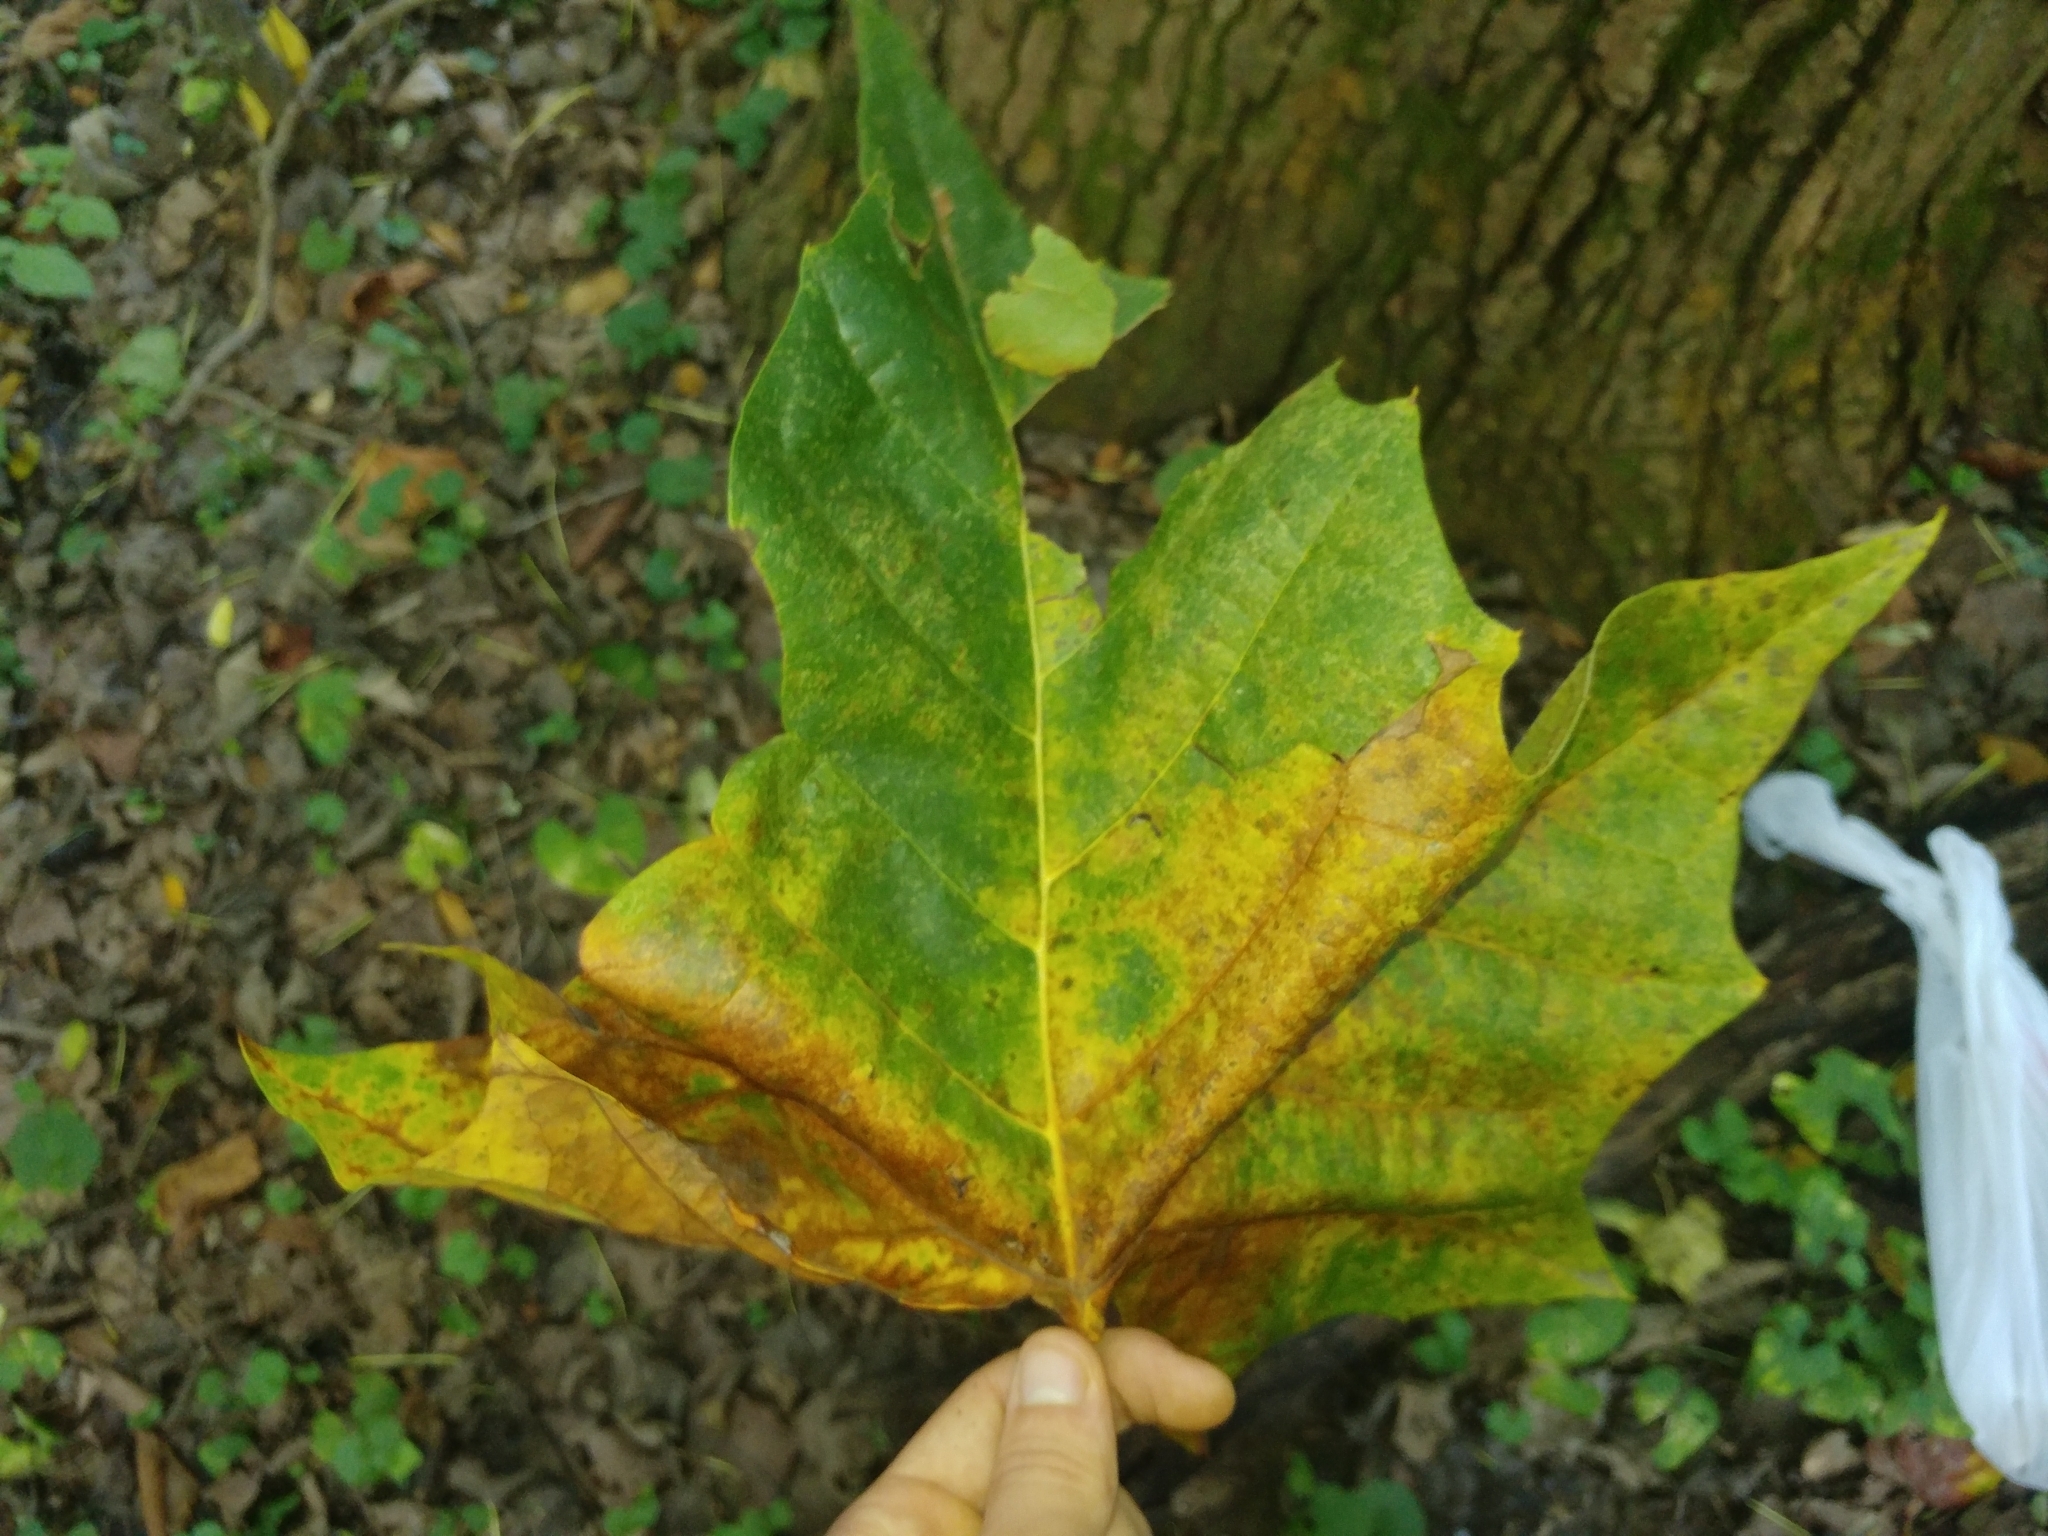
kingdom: Plantae
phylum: Tracheophyta
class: Magnoliopsida
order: Proteales
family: Platanaceae
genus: Platanus
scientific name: Platanus occidentalis
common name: American sycamore
